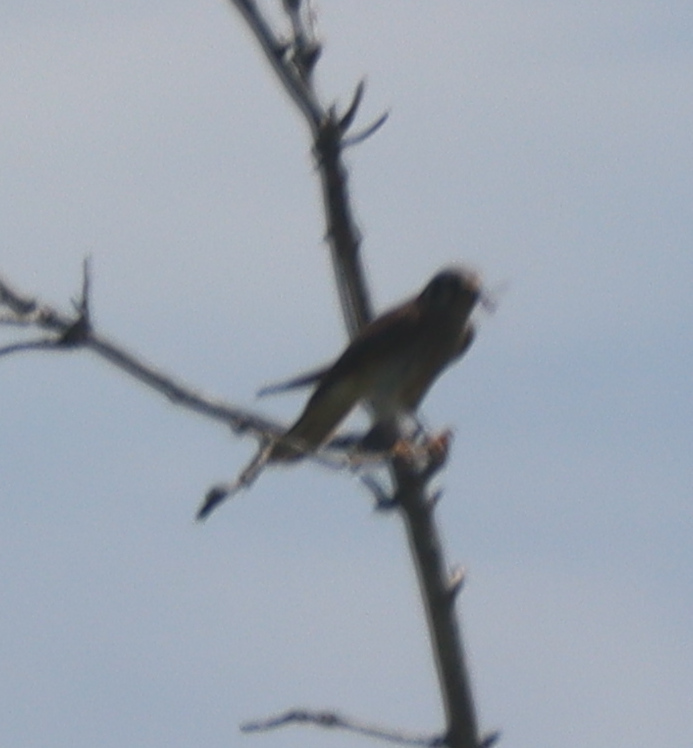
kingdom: Animalia
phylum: Chordata
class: Aves
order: Falconiformes
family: Falconidae
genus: Falco
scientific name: Falco sparverius
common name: American kestrel
